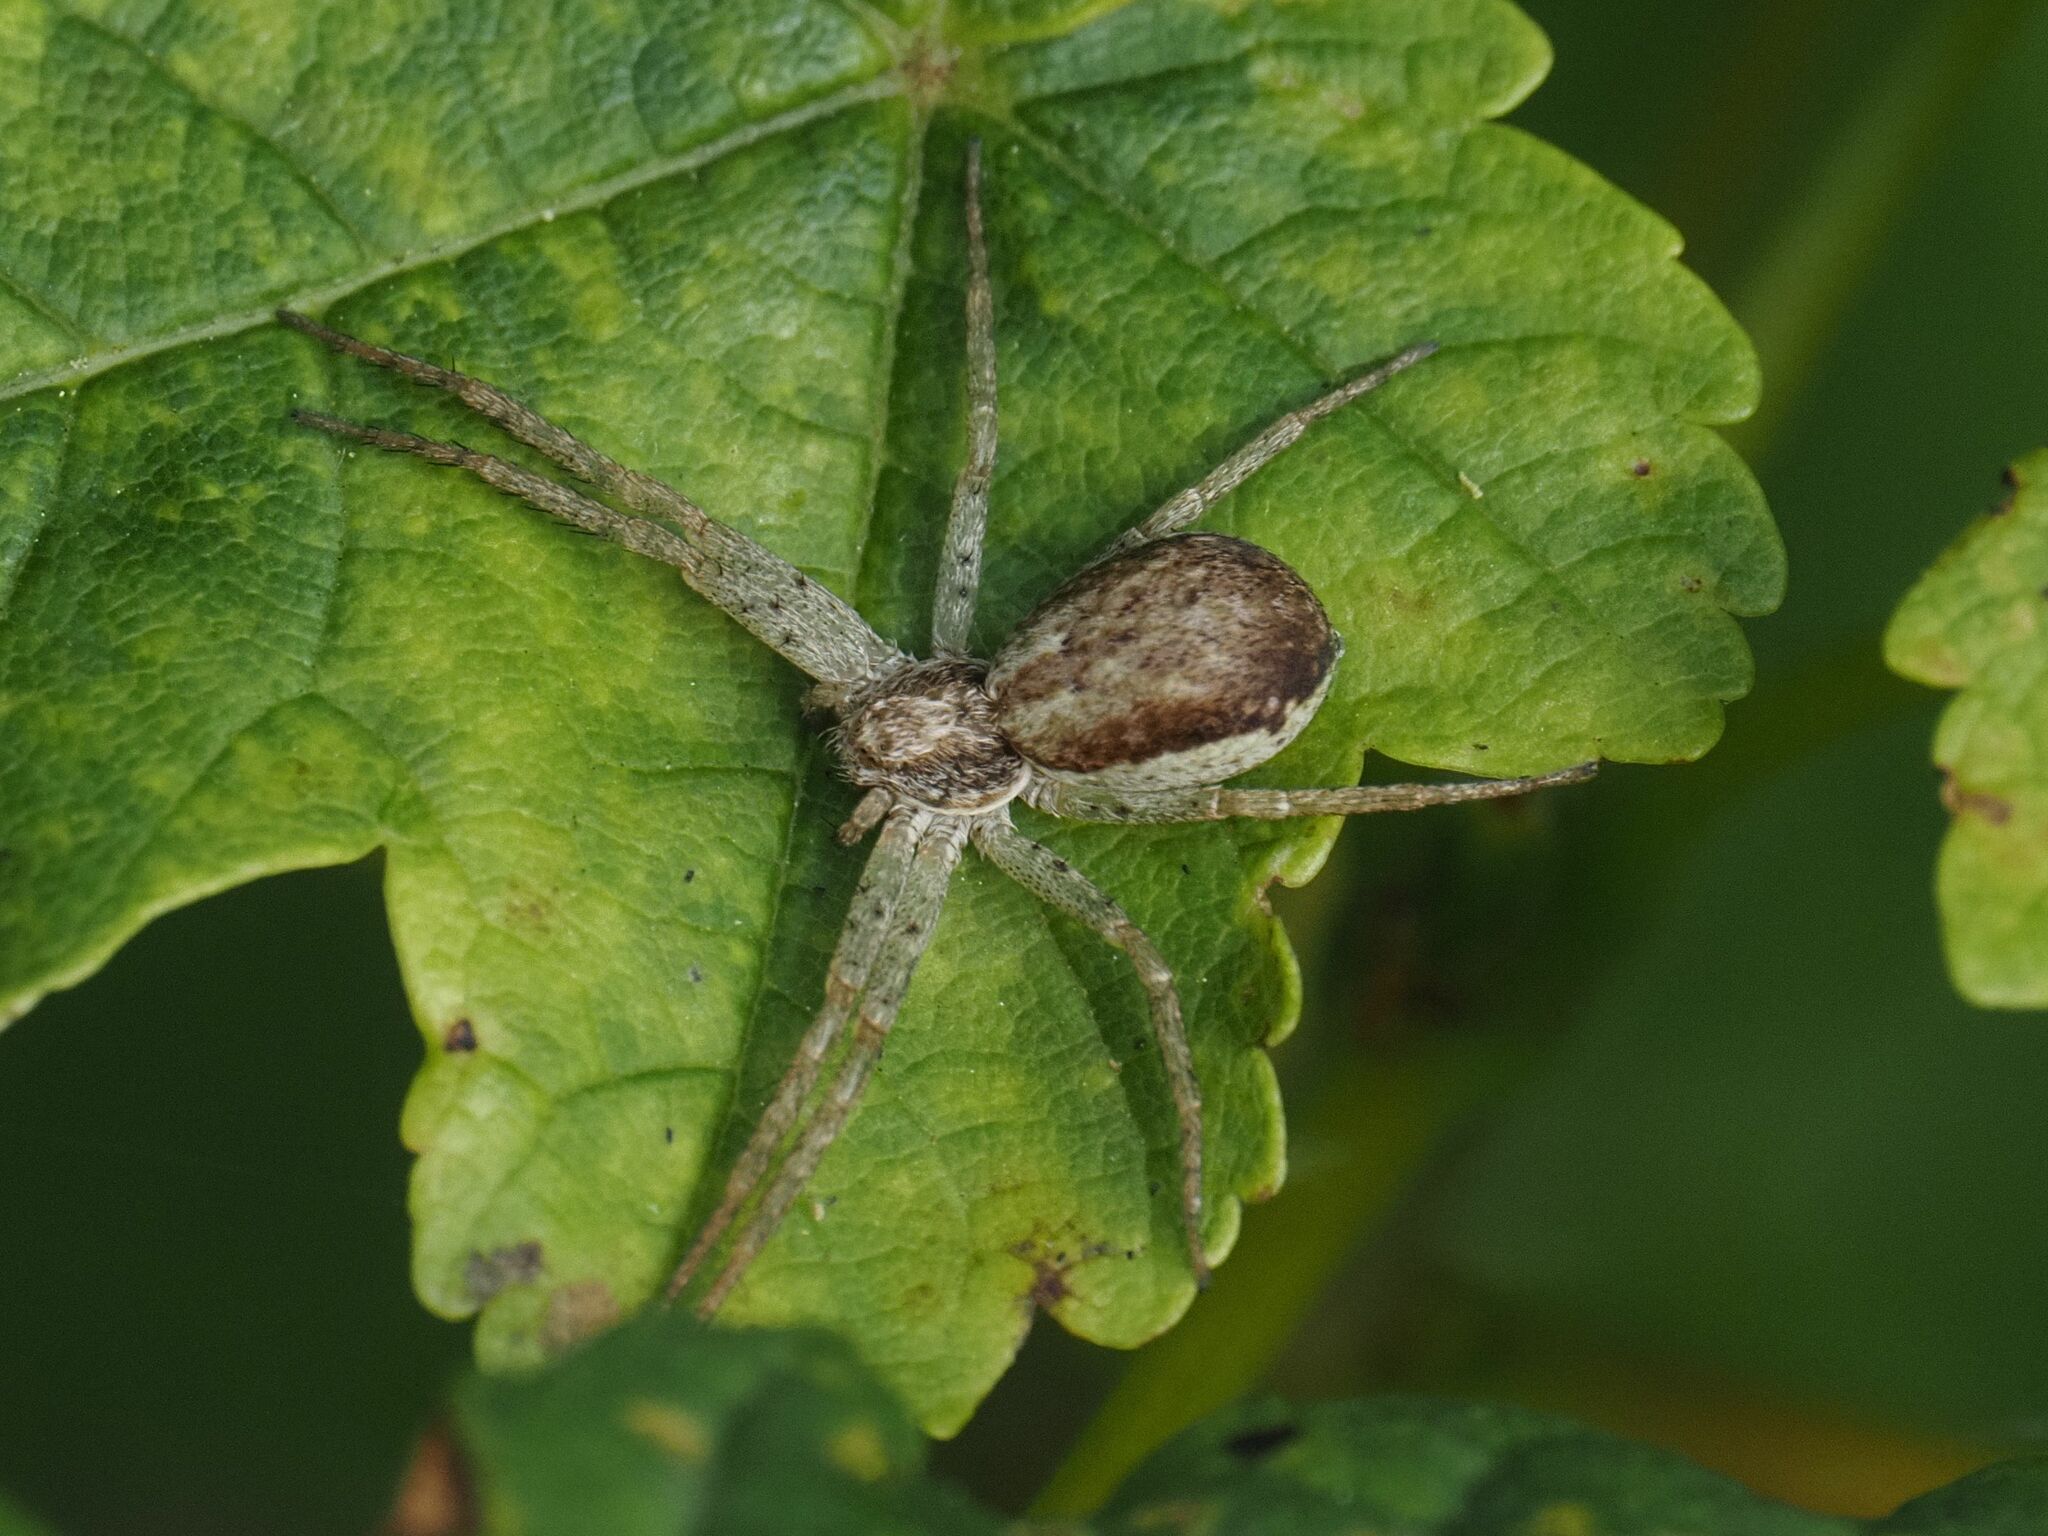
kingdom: Animalia
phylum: Arthropoda
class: Arachnida
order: Araneae
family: Philodromidae
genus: Philodromus
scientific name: Philodromus dispar
